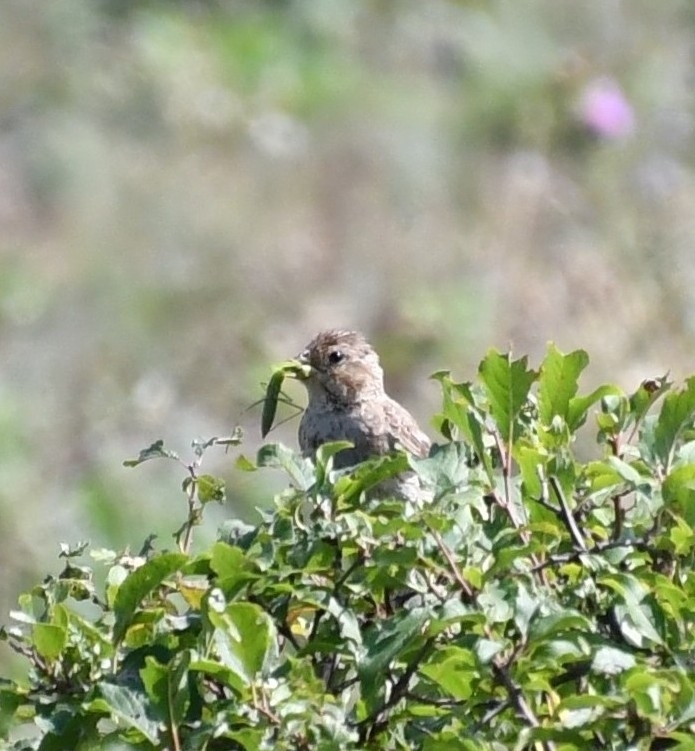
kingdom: Animalia
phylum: Chordata
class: Aves
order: Passeriformes
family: Emberizidae
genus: Emberiza
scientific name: Emberiza calandra
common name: Corn bunting
